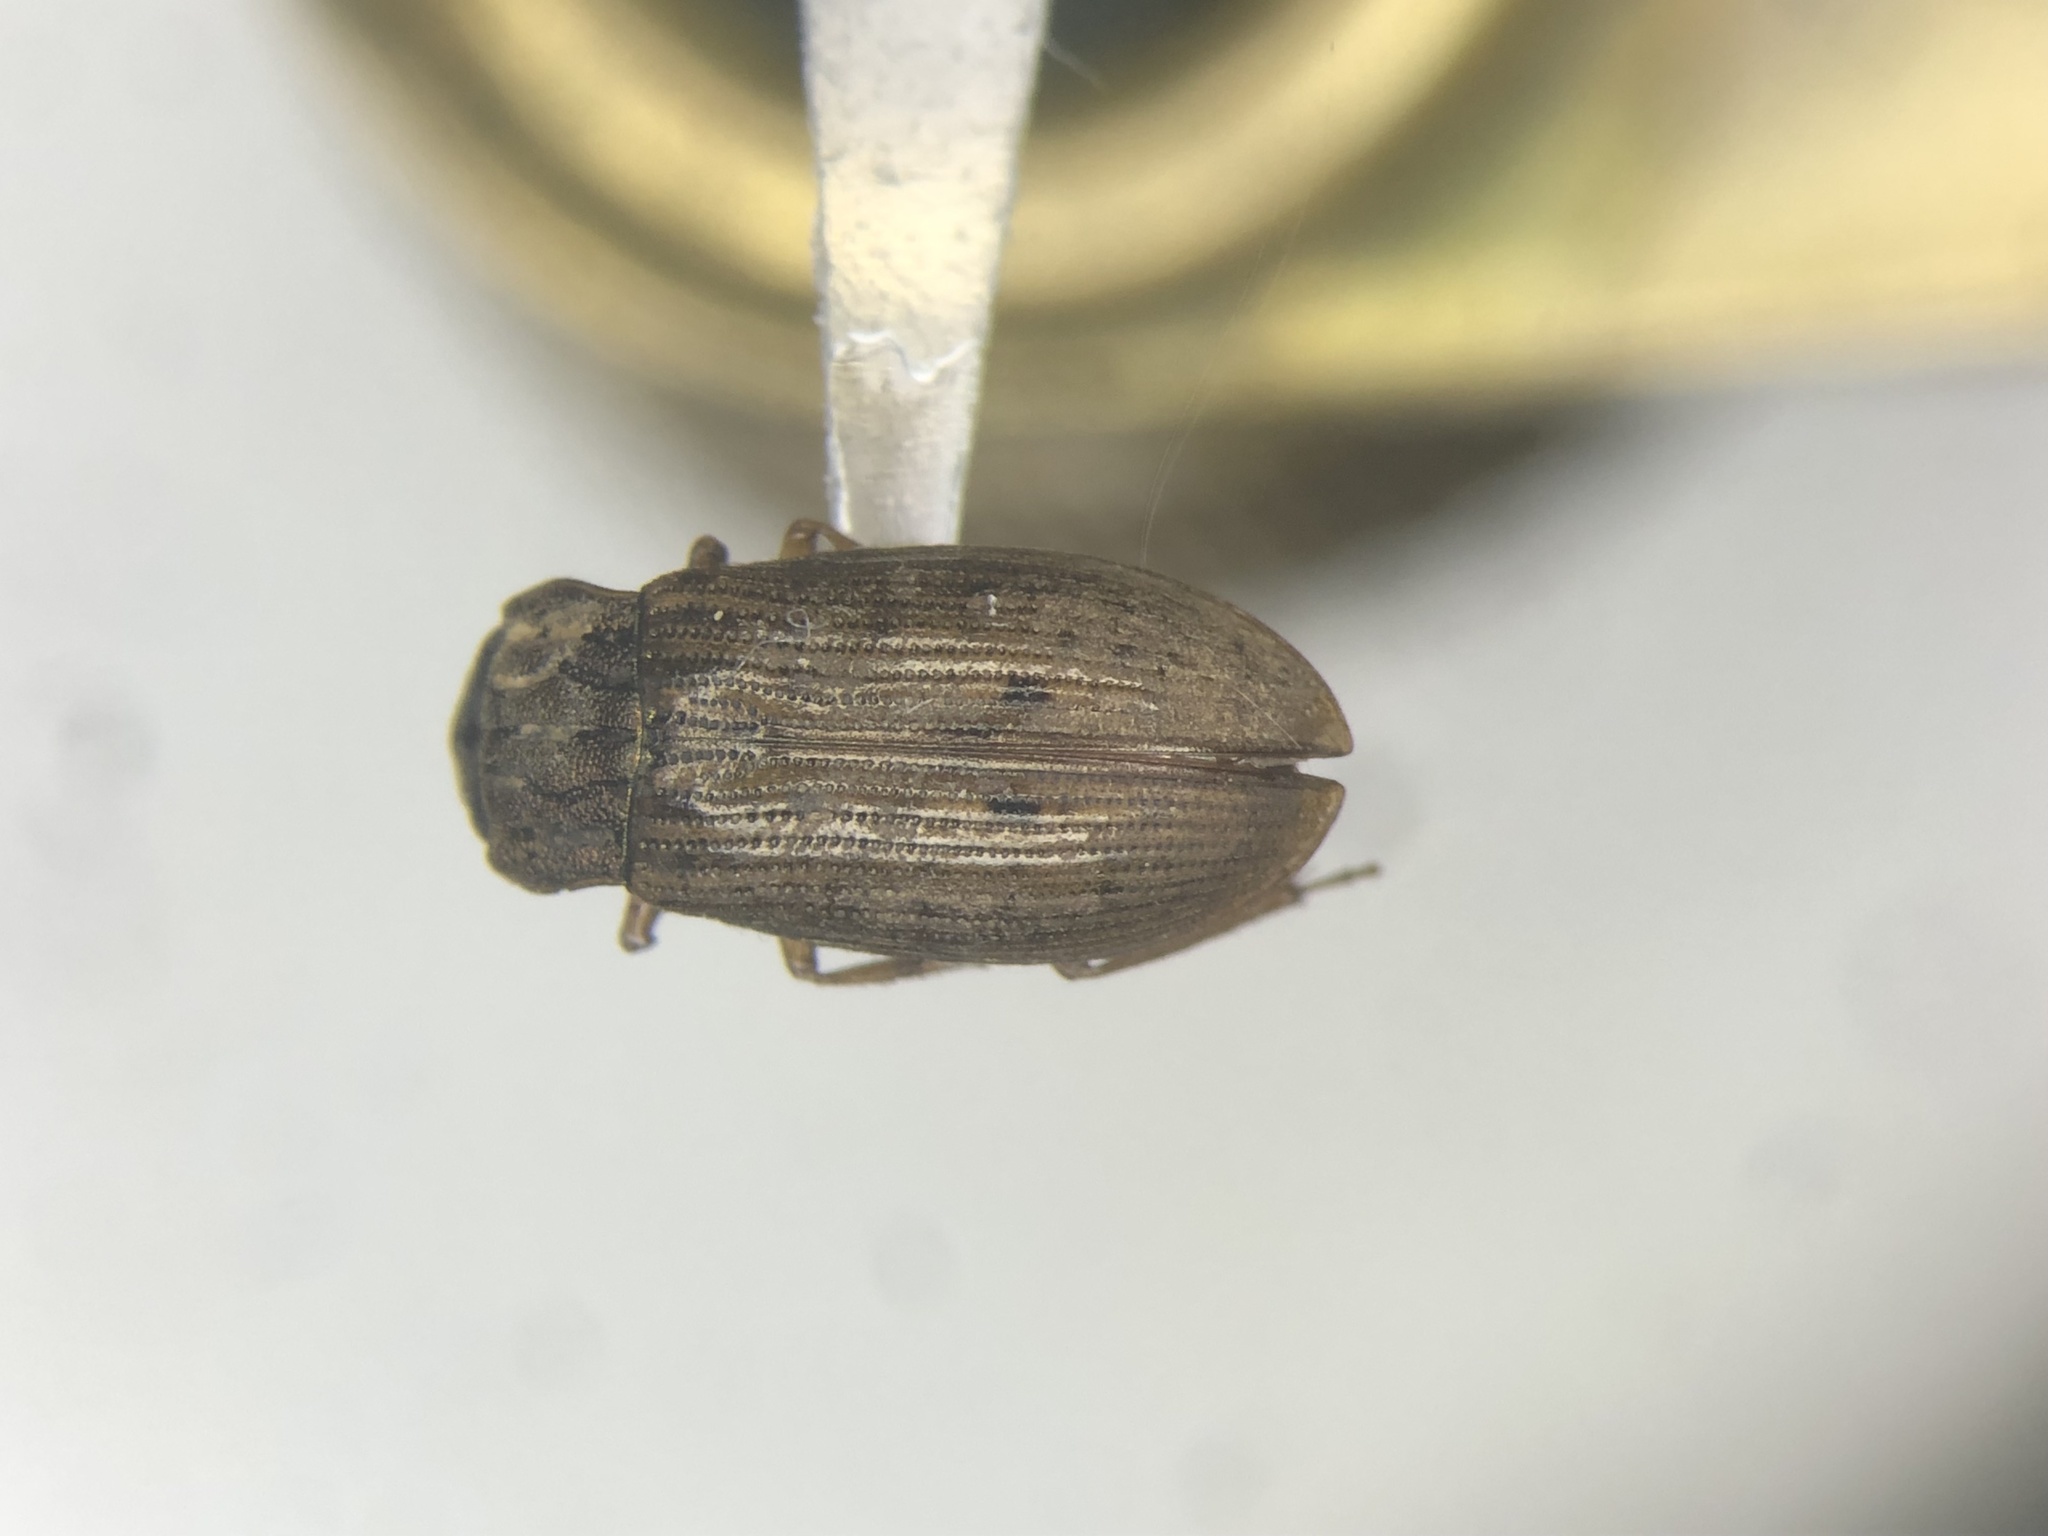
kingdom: Animalia
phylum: Arthropoda
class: Insecta
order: Coleoptera
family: Helophoridae
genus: Helophorus
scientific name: Helophorus grandis
